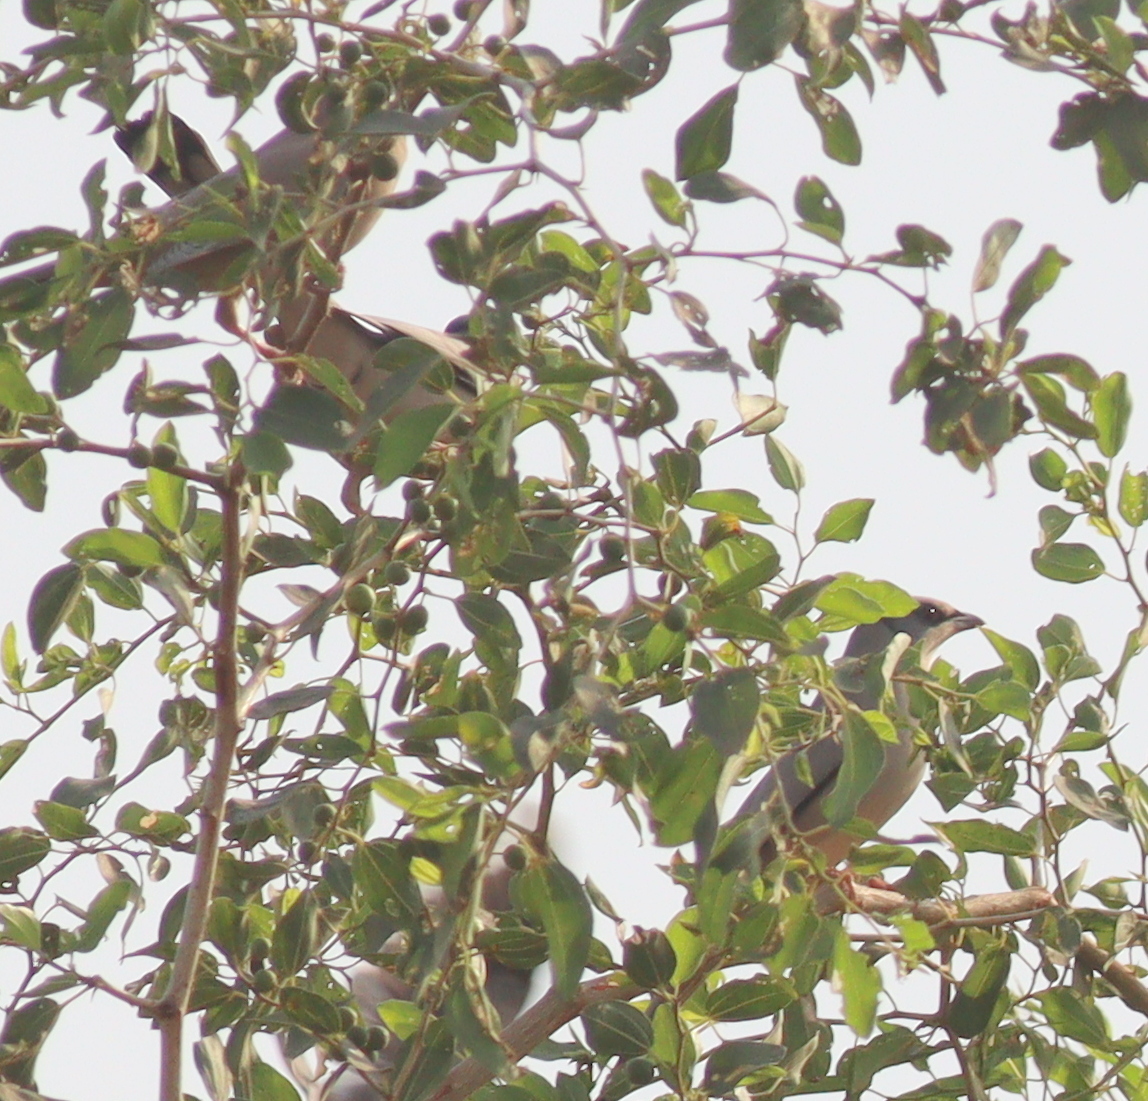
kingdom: Animalia
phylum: Chordata
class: Aves
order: Passeriformes
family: Hypocoliidae
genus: Hypocolius
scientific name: Hypocolius ampelinus
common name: Hypocolius
